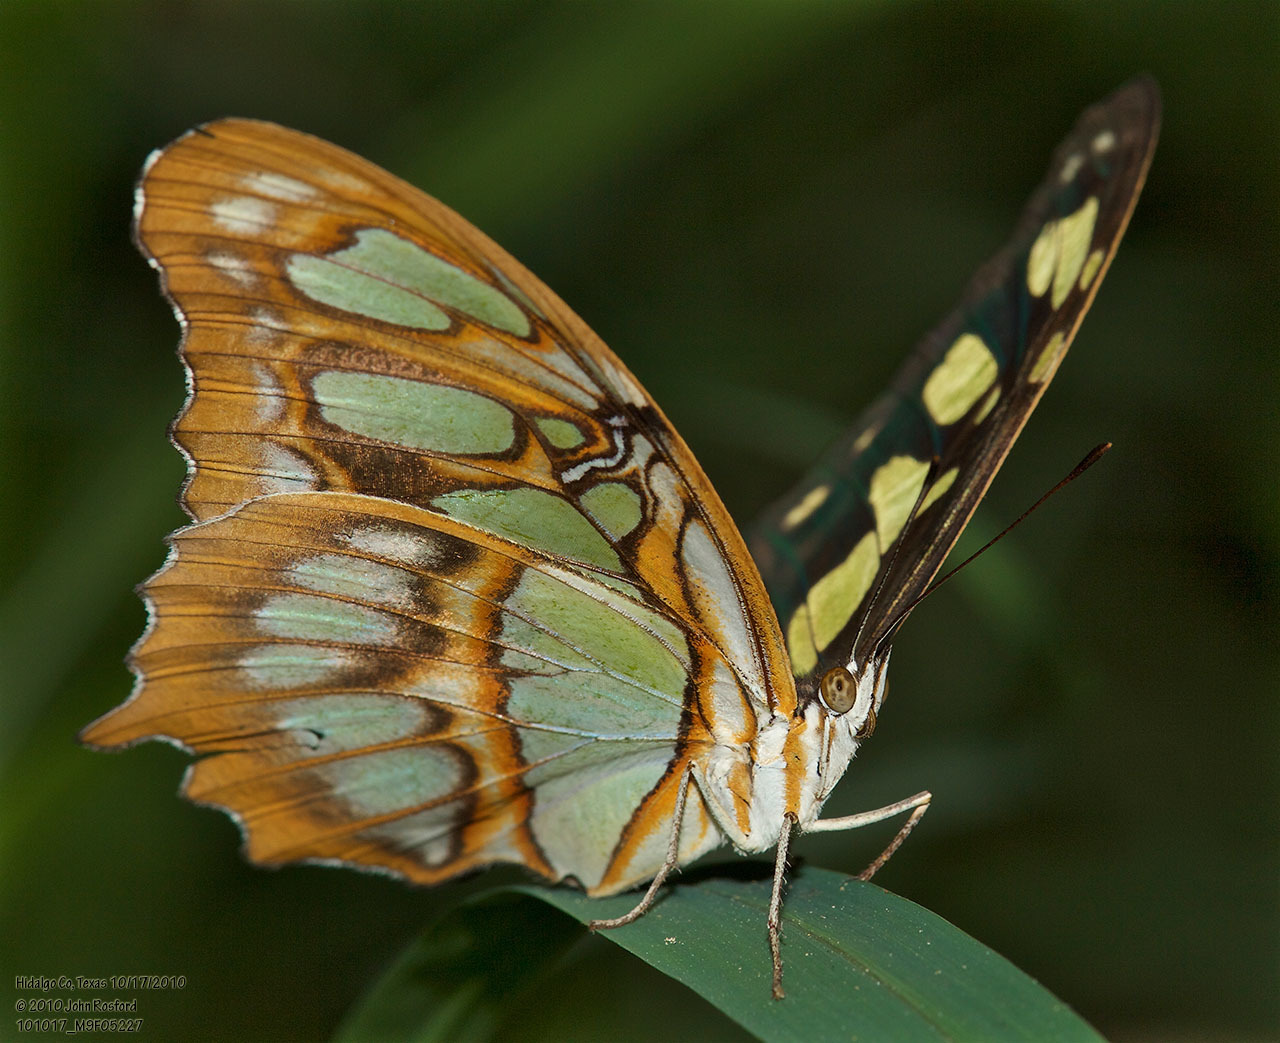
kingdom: Animalia
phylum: Arthropoda
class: Insecta
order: Lepidoptera
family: Nymphalidae
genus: Siproeta
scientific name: Siproeta stelenes
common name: Malachite
